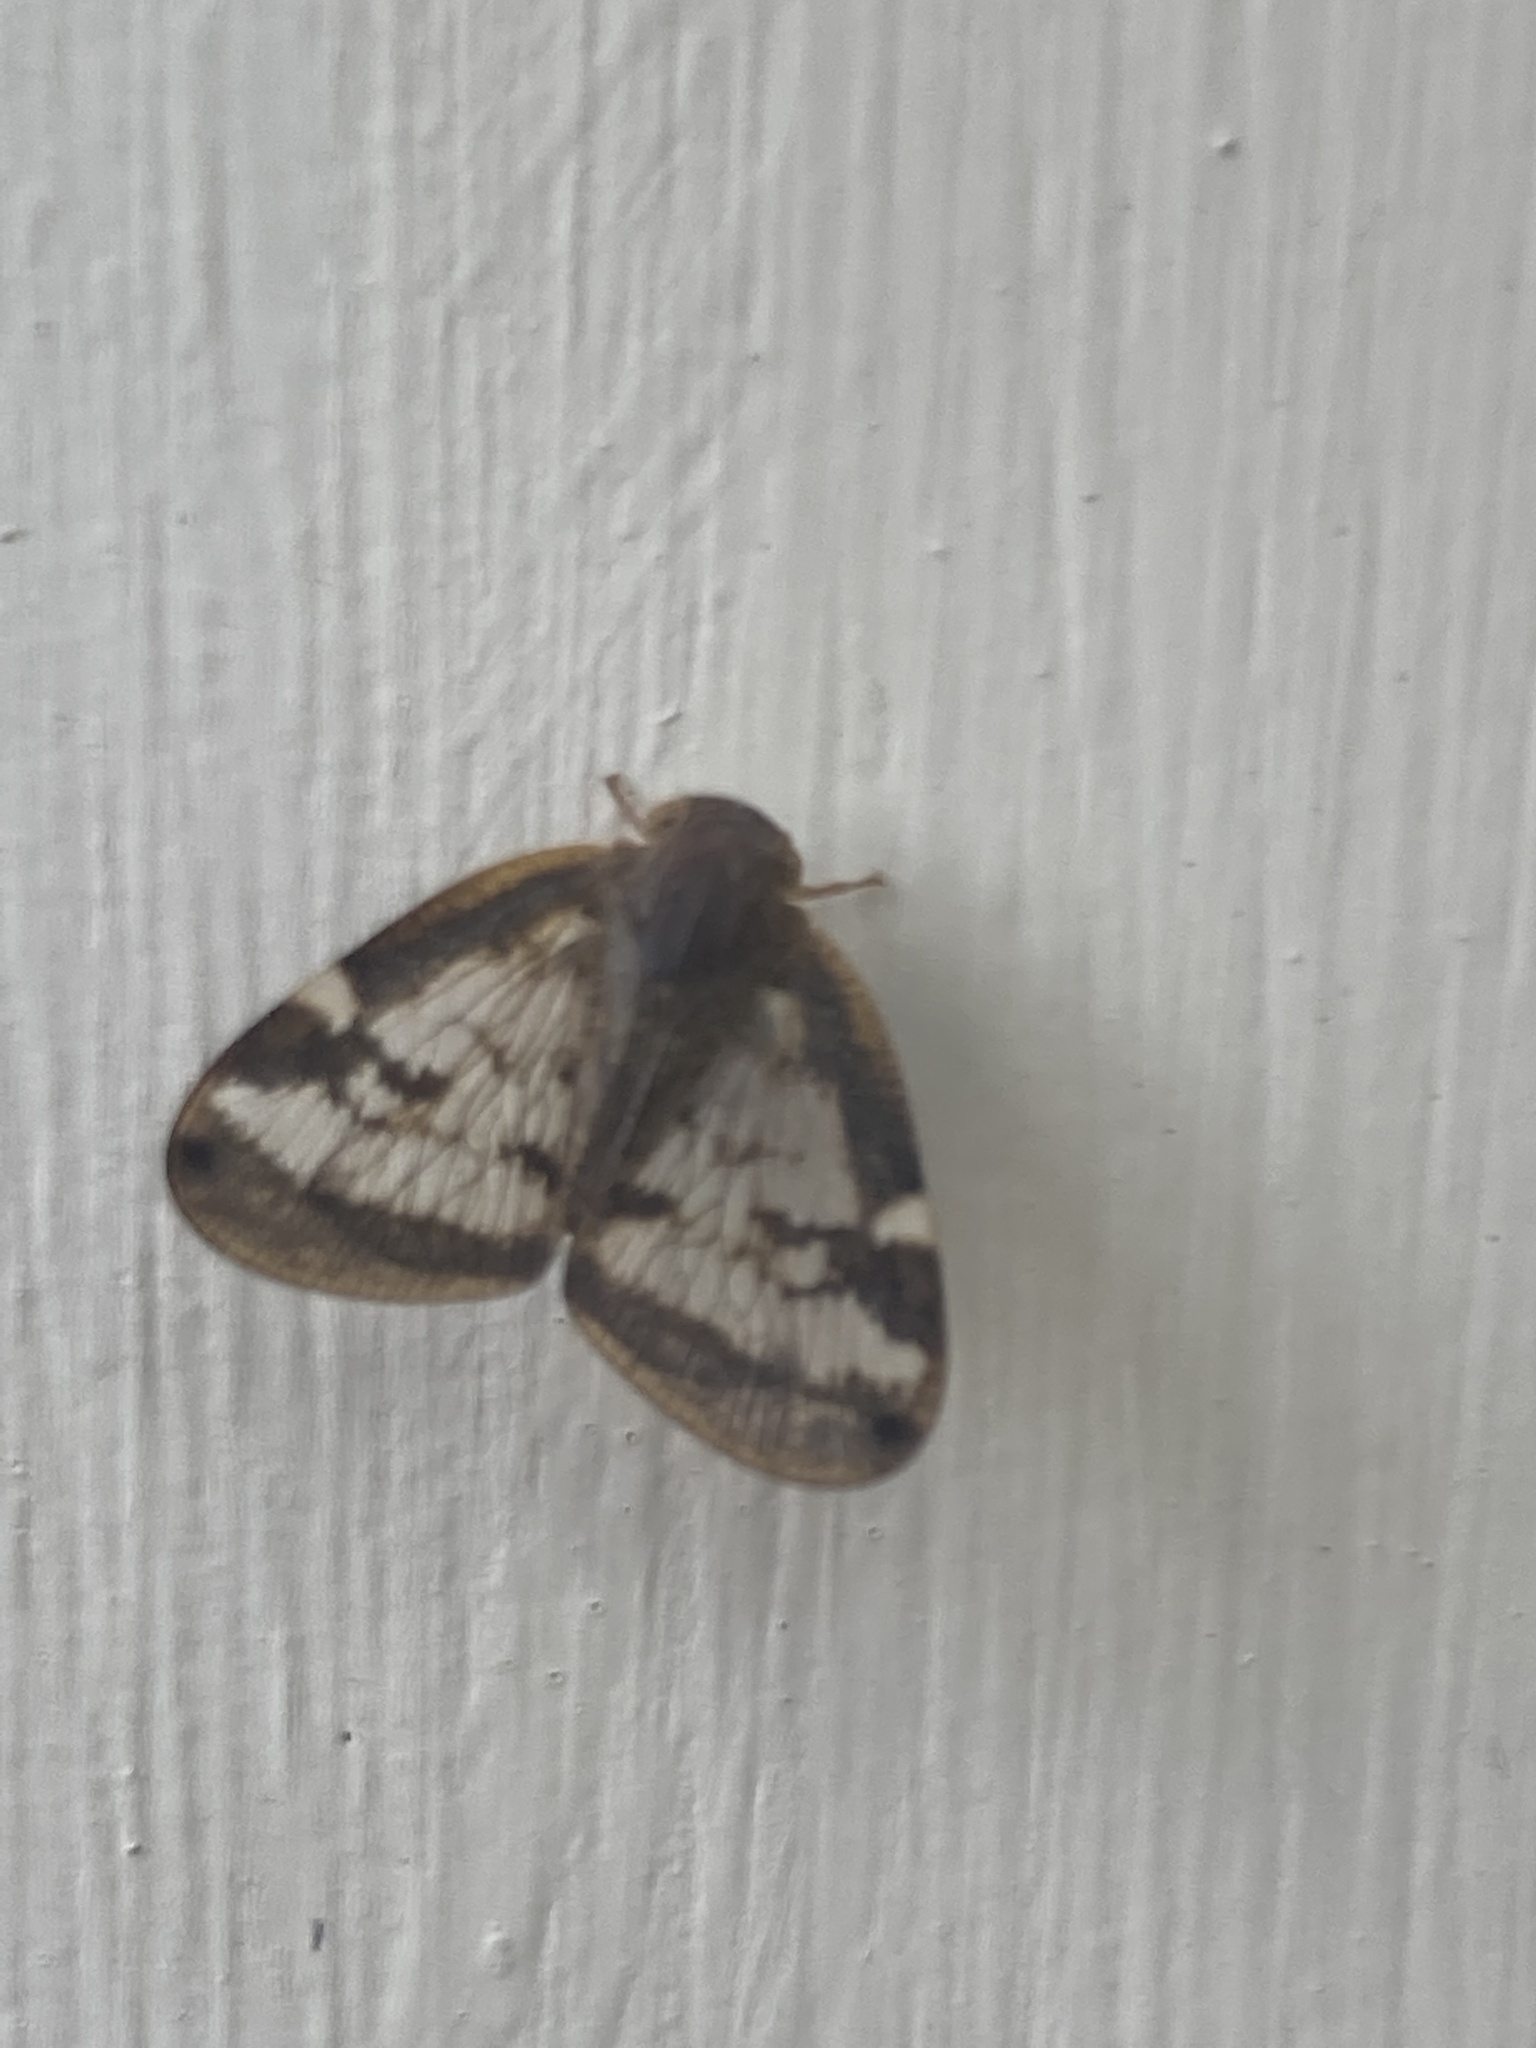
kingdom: Animalia
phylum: Arthropoda
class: Insecta
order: Hemiptera
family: Ricaniidae
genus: Scolypopa
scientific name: Scolypopa australis
